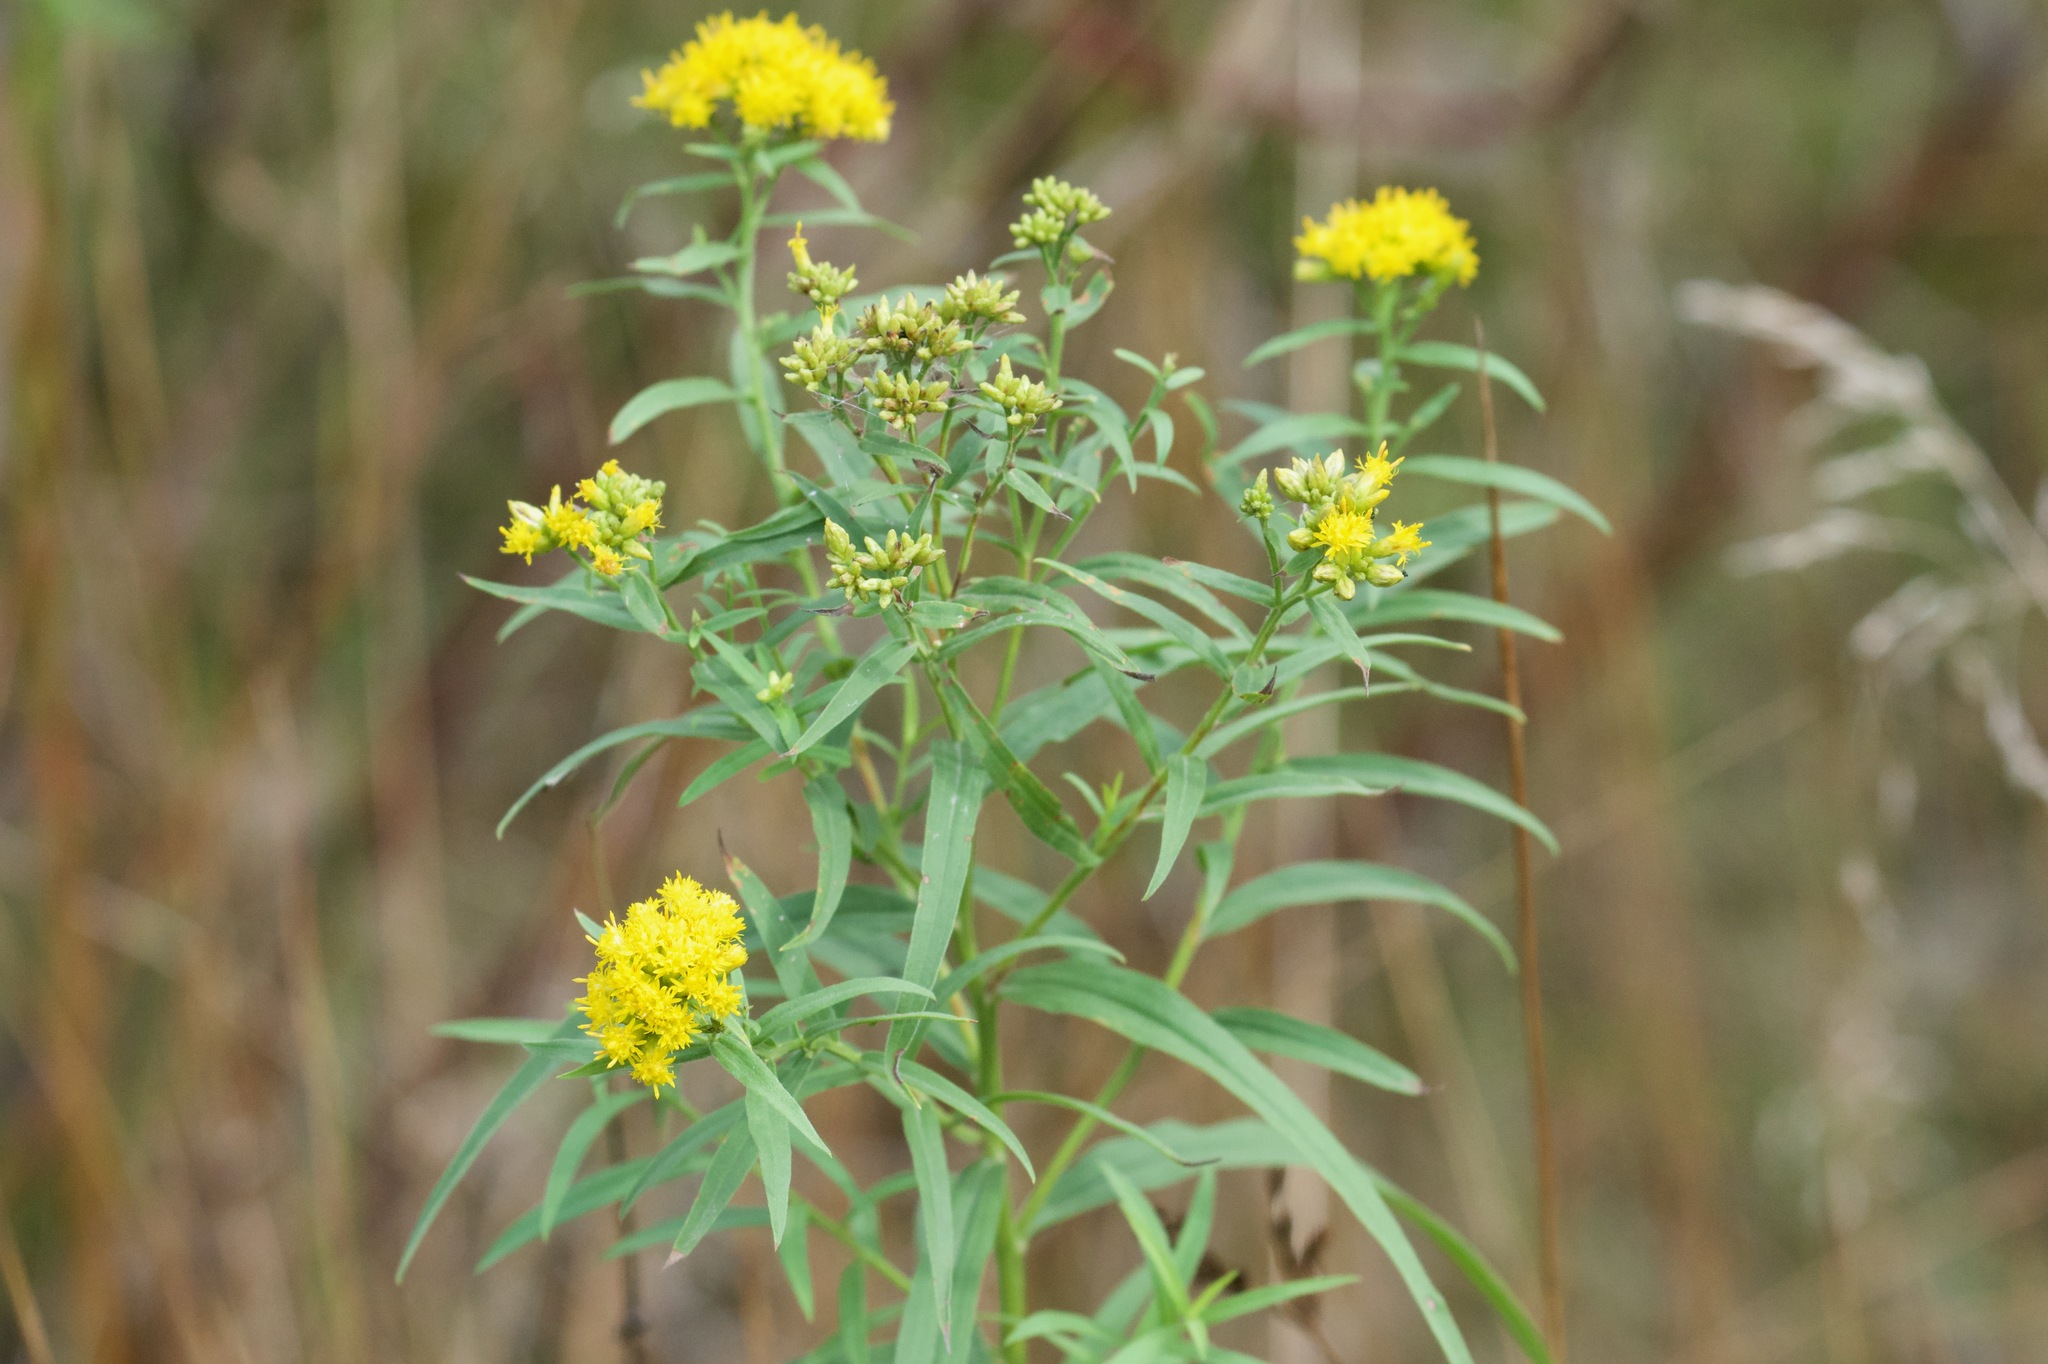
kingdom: Plantae
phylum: Tracheophyta
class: Magnoliopsida
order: Asterales
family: Asteraceae
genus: Euthamia
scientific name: Euthamia graminifolia
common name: Common goldentop
